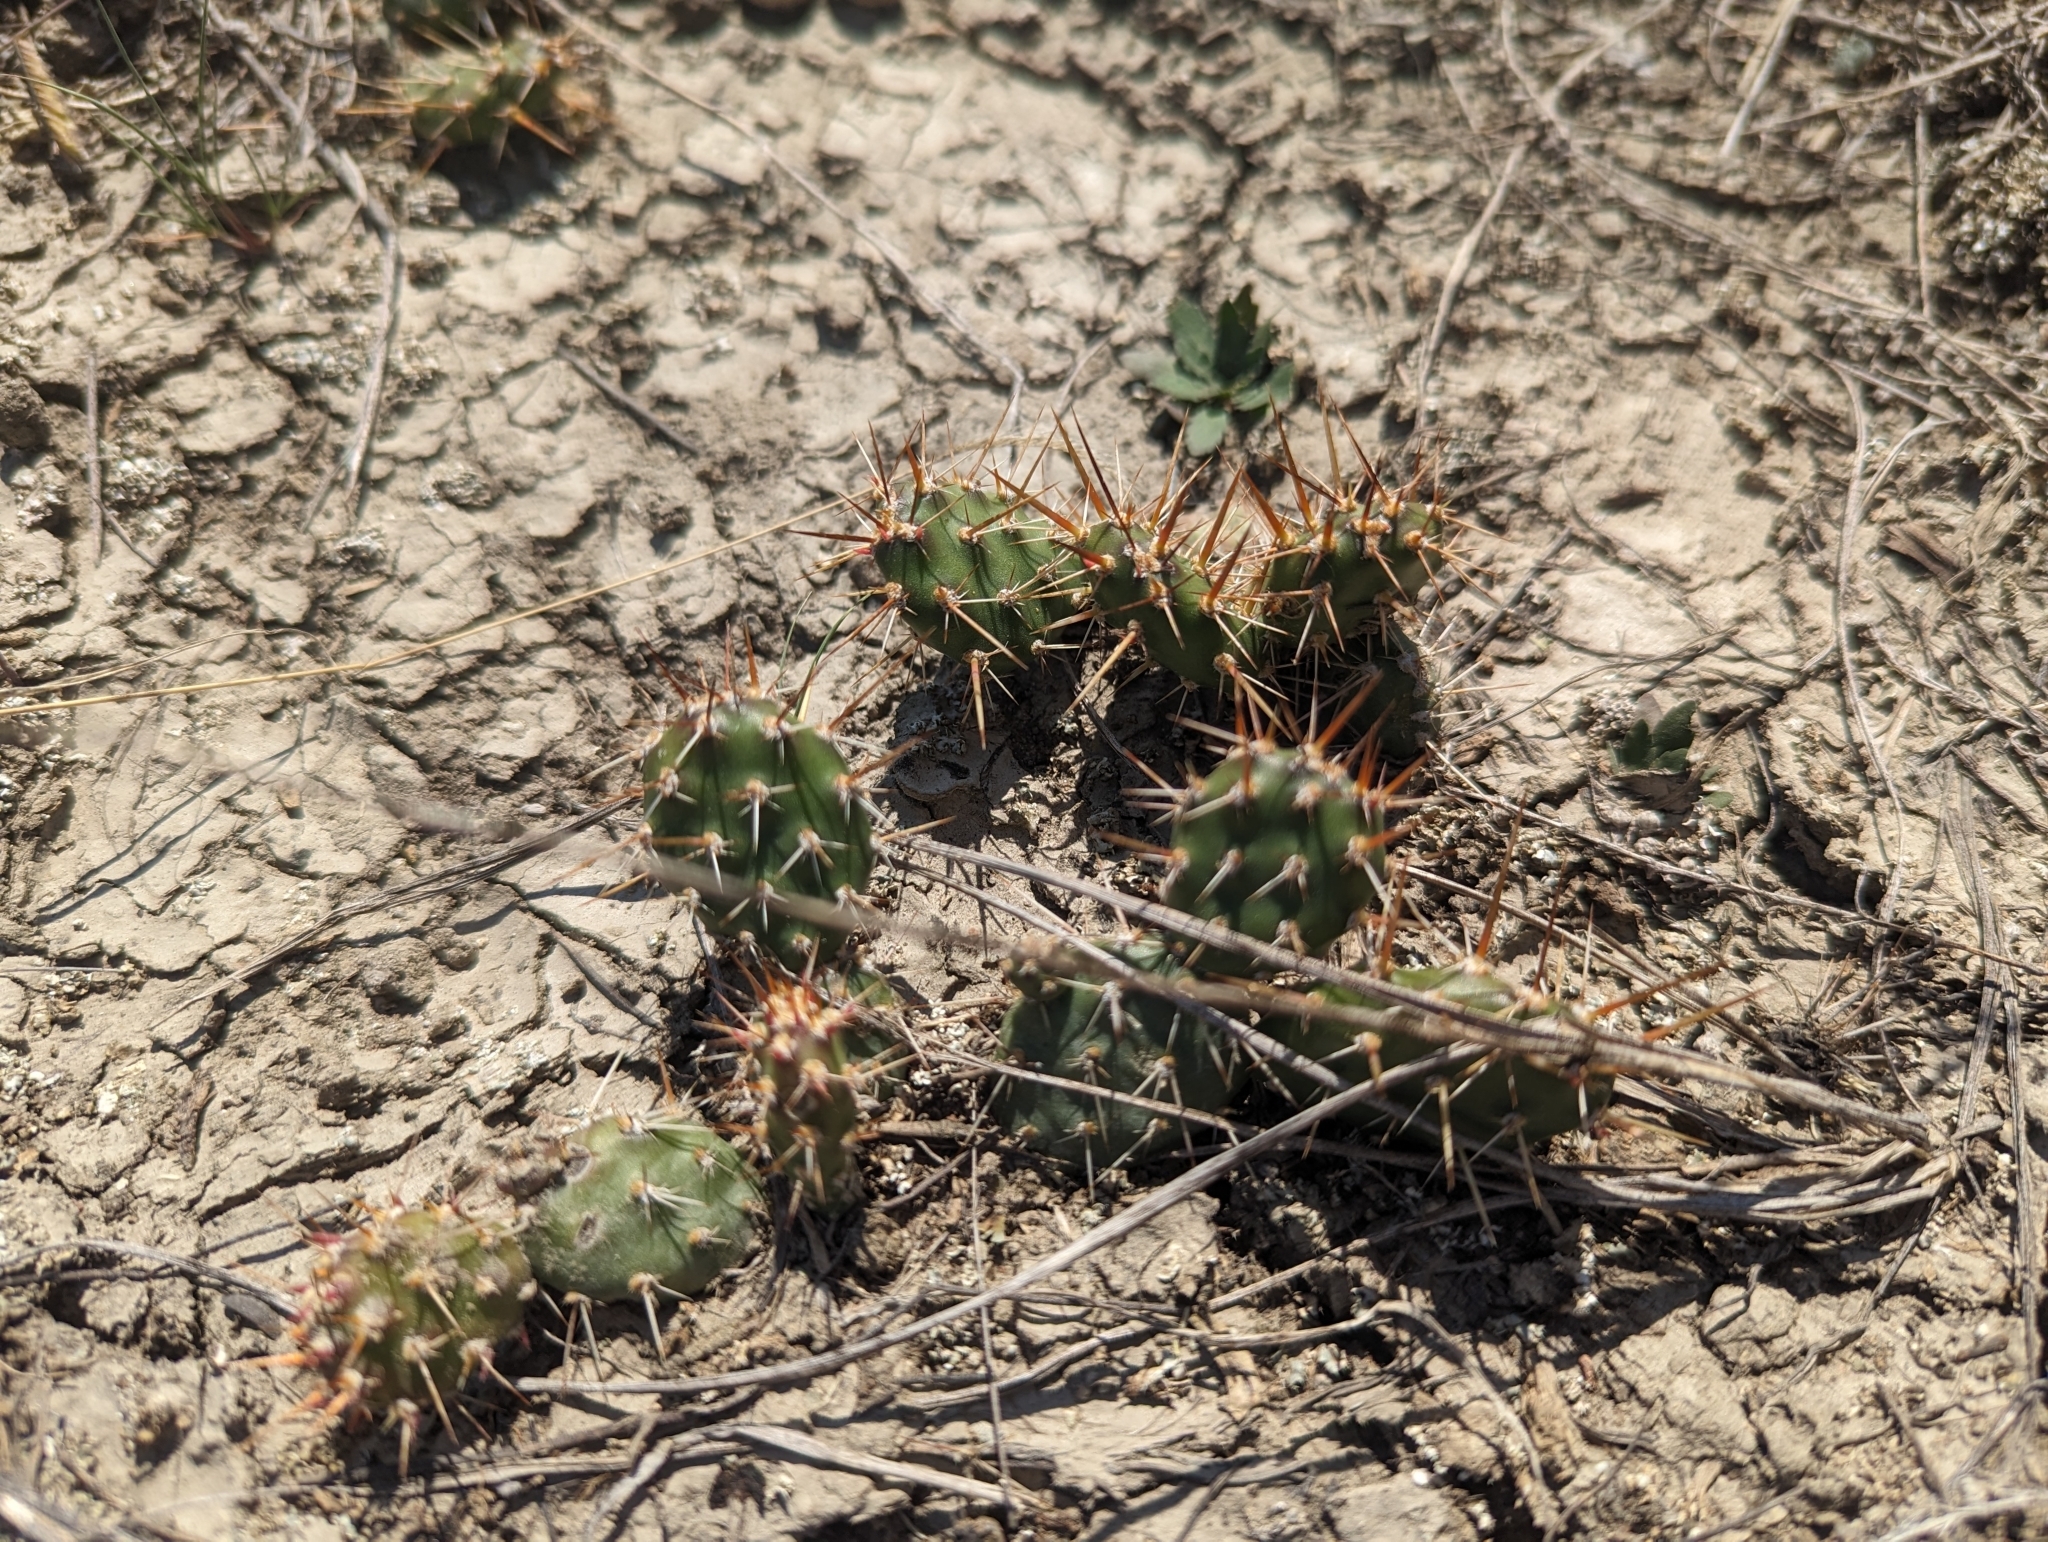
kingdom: Plantae
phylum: Tracheophyta
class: Magnoliopsida
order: Caryophyllales
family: Cactaceae
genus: Opuntia
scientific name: Opuntia fragilis
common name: Brittle cactus
